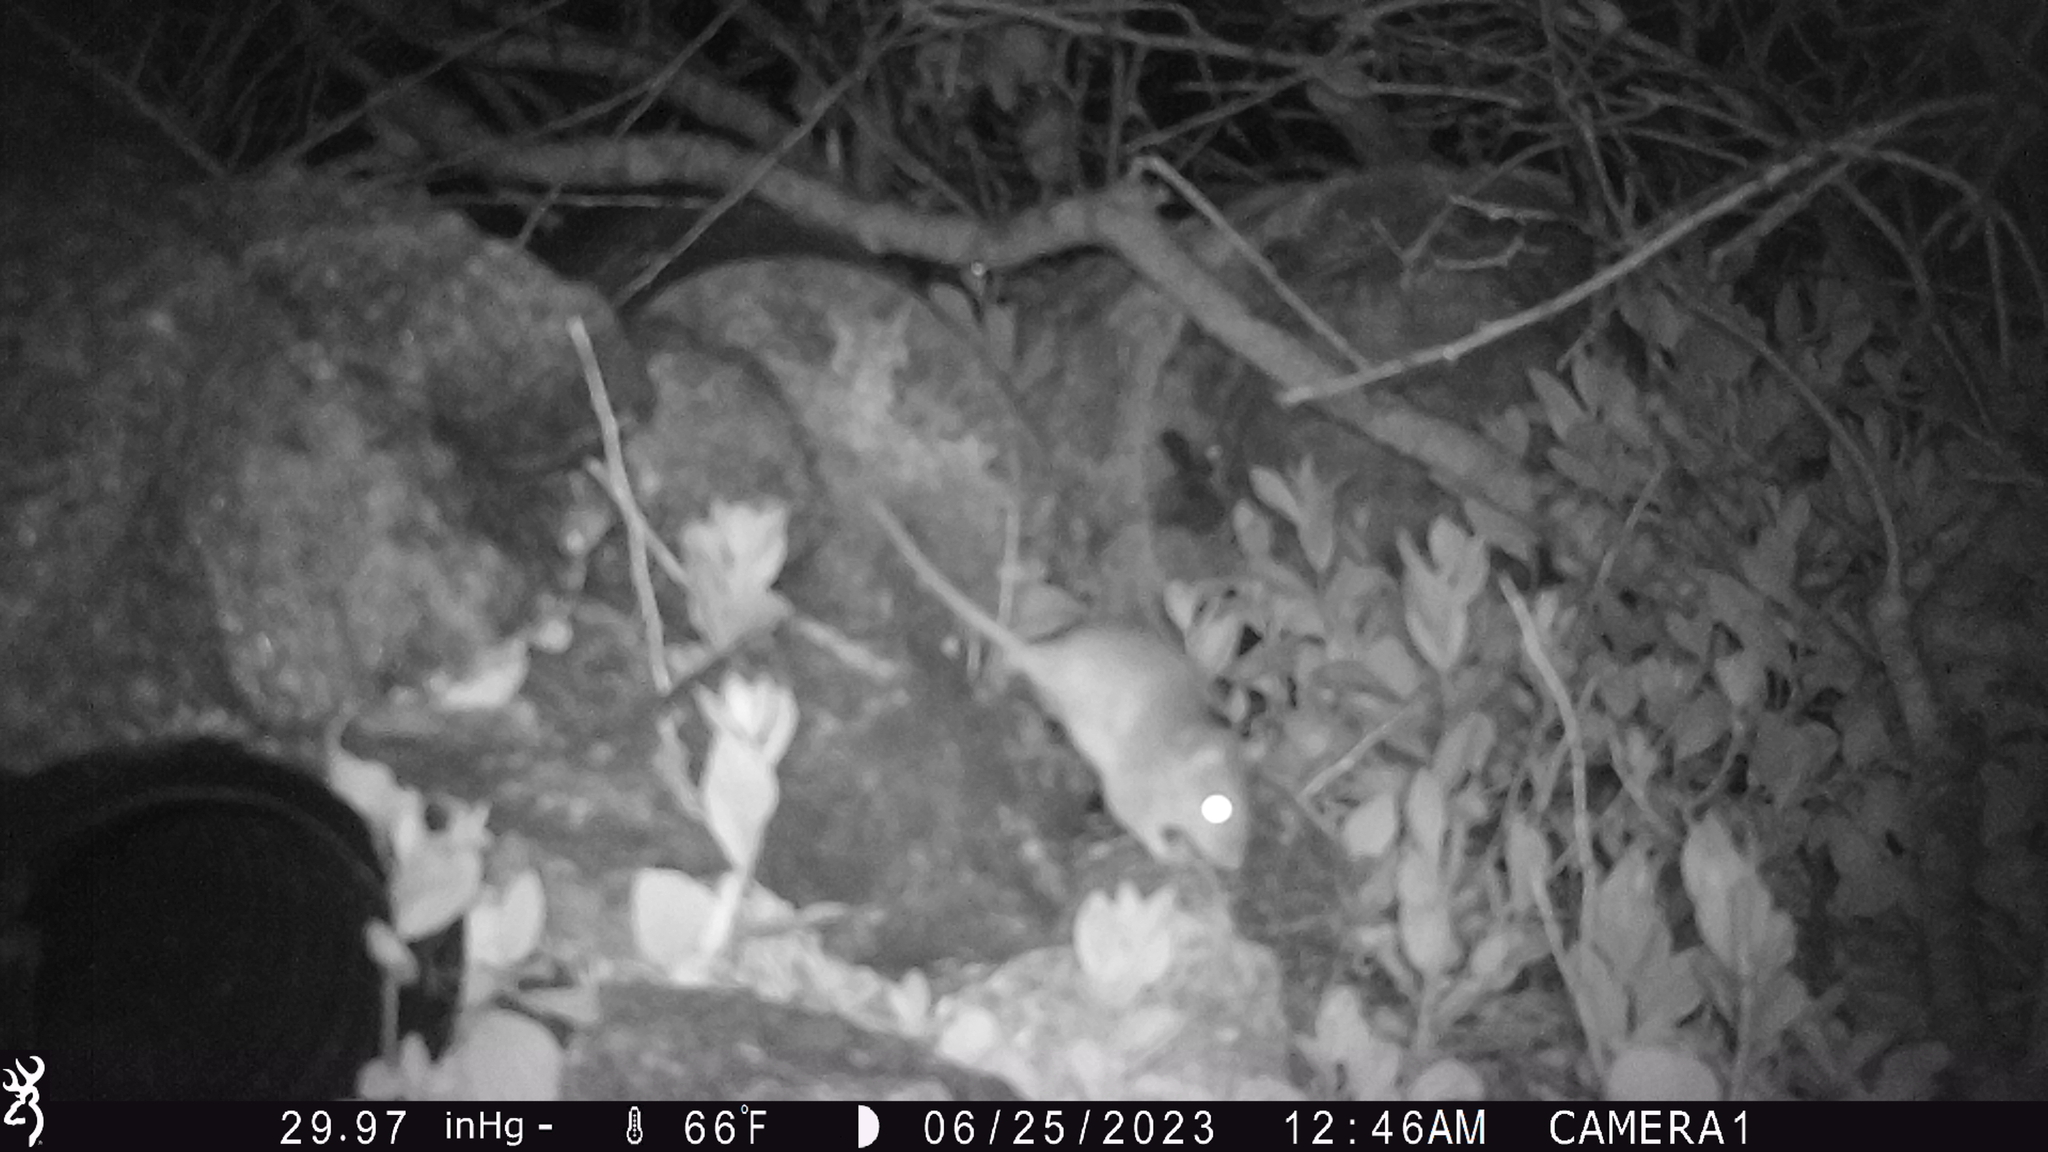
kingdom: Animalia
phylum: Chordata
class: Mammalia
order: Rodentia
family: Muridae
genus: Rattus
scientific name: Rattus norvegicus
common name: Brown rat
